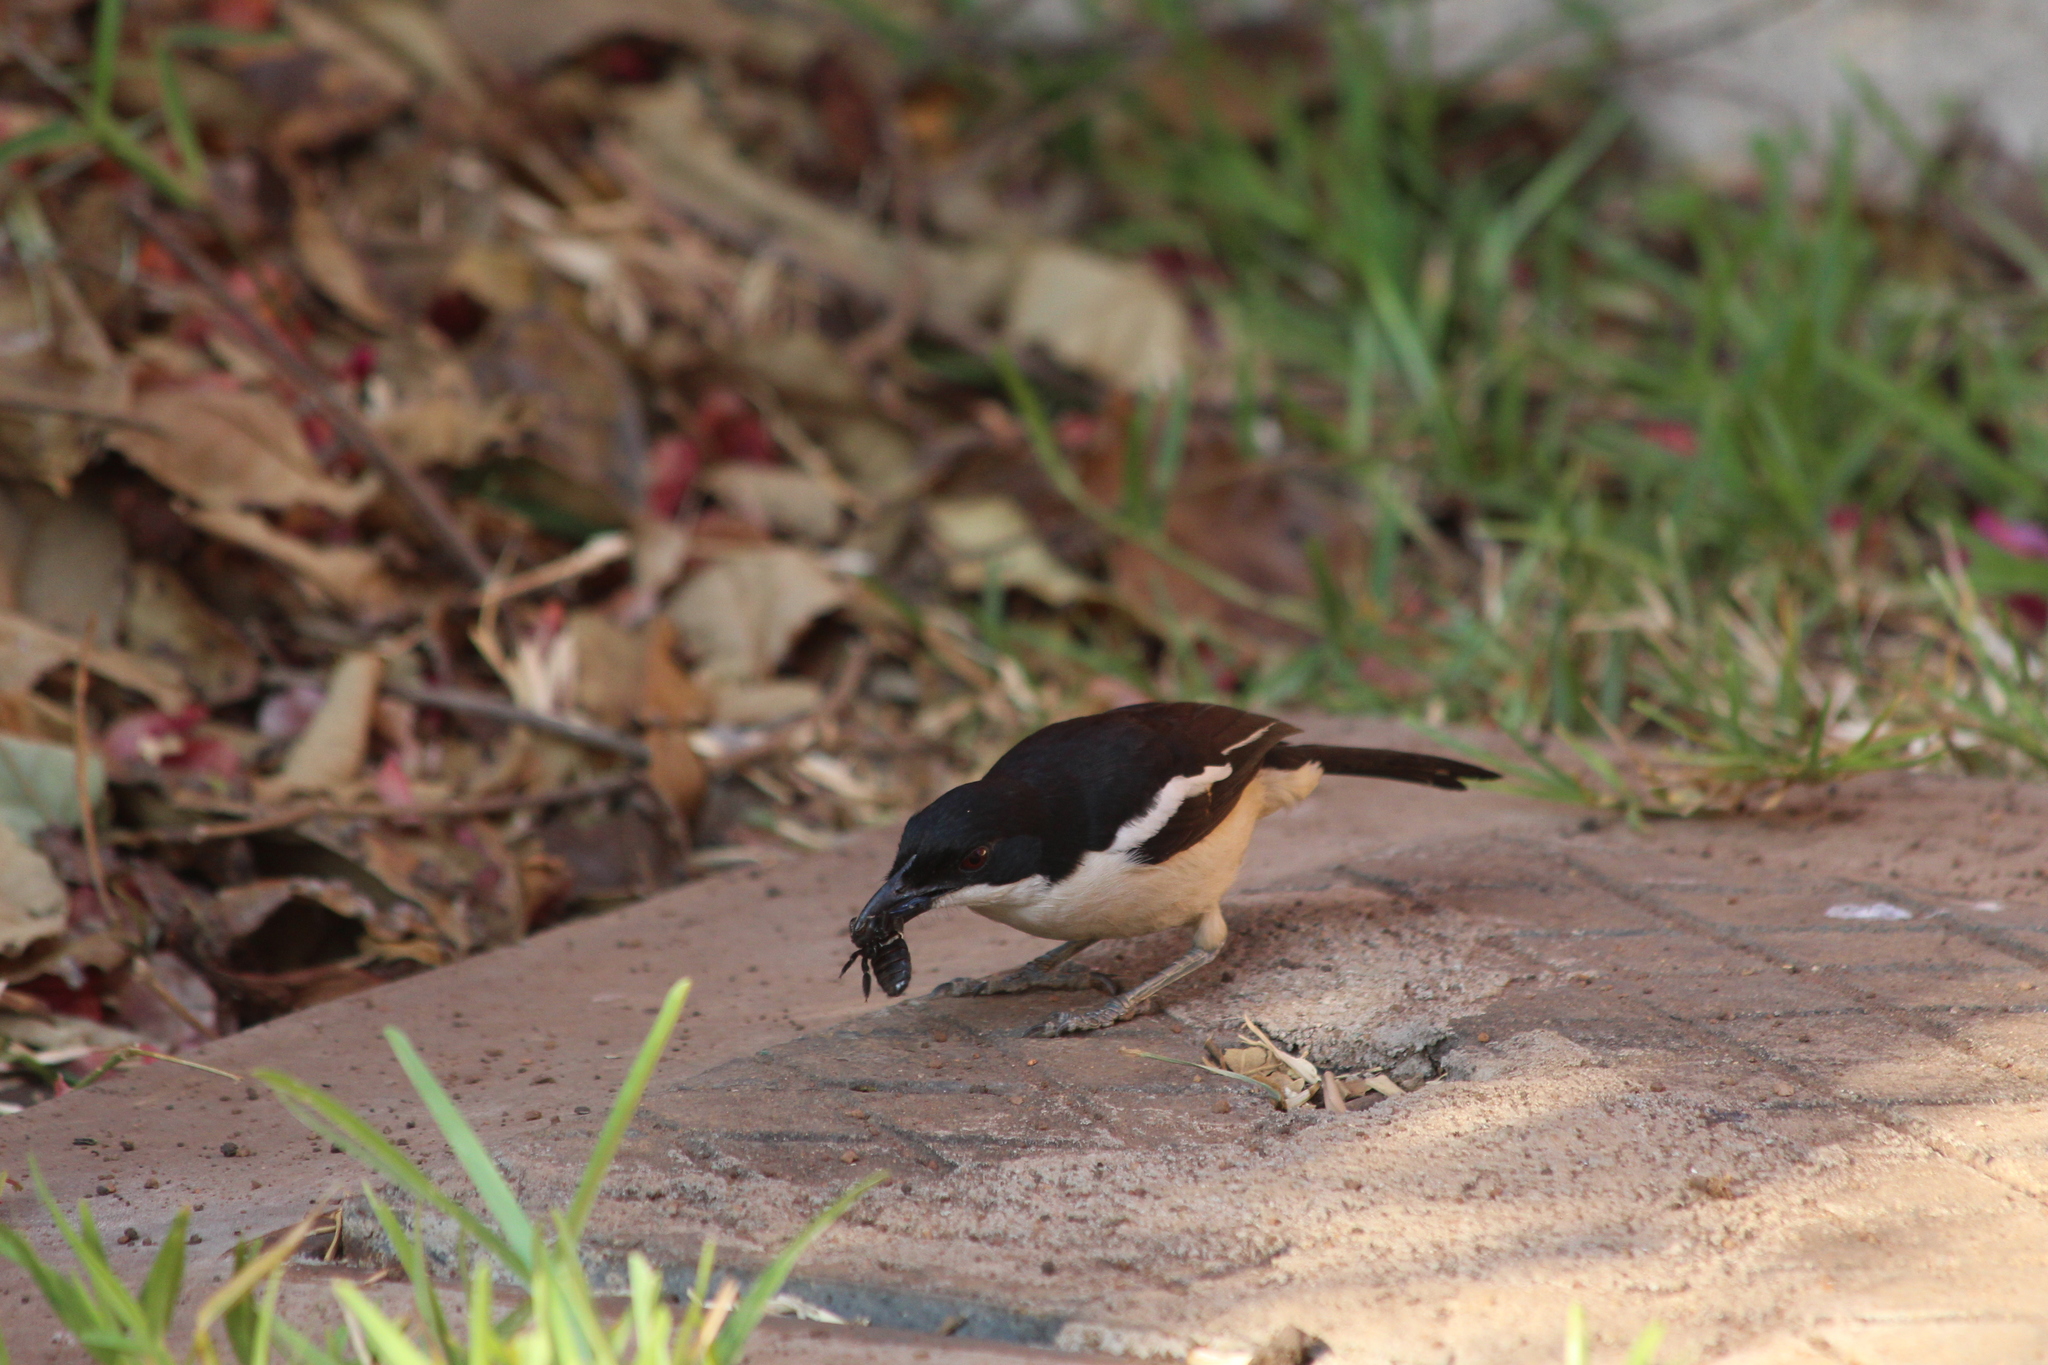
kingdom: Animalia
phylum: Chordata
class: Aves
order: Passeriformes
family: Malaconotidae
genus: Laniarius
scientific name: Laniarius major
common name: Tropical boubou
